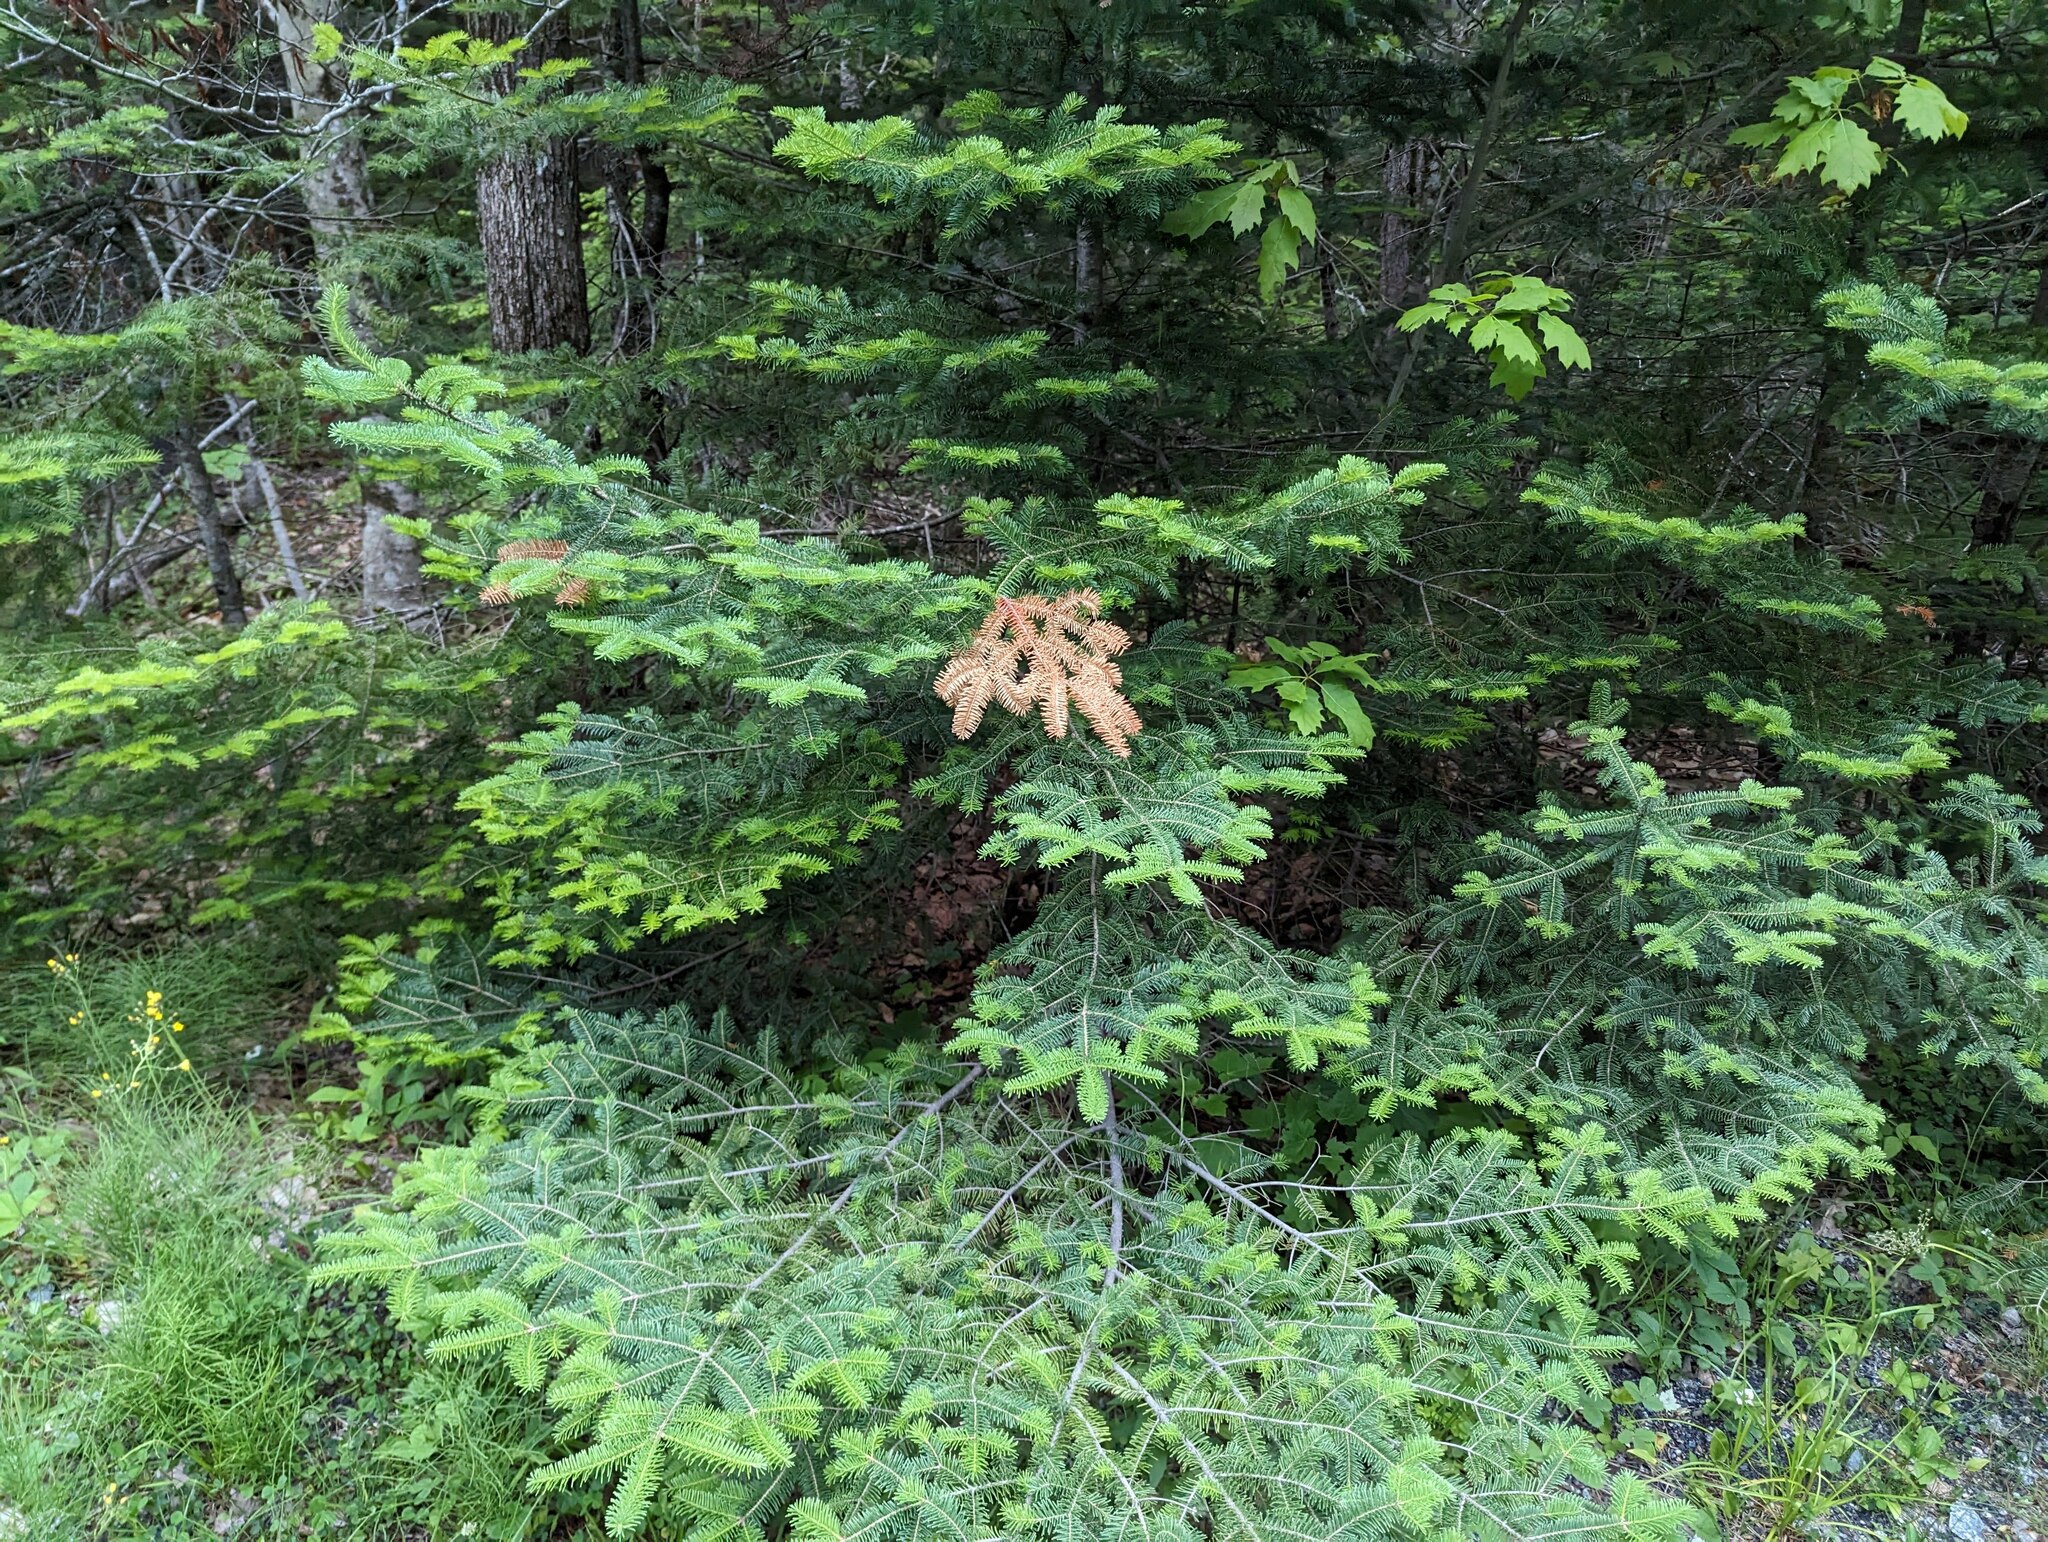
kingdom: Plantae
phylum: Tracheophyta
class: Pinopsida
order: Pinales
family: Pinaceae
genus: Abies
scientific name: Abies balsamea
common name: Balsam fir
